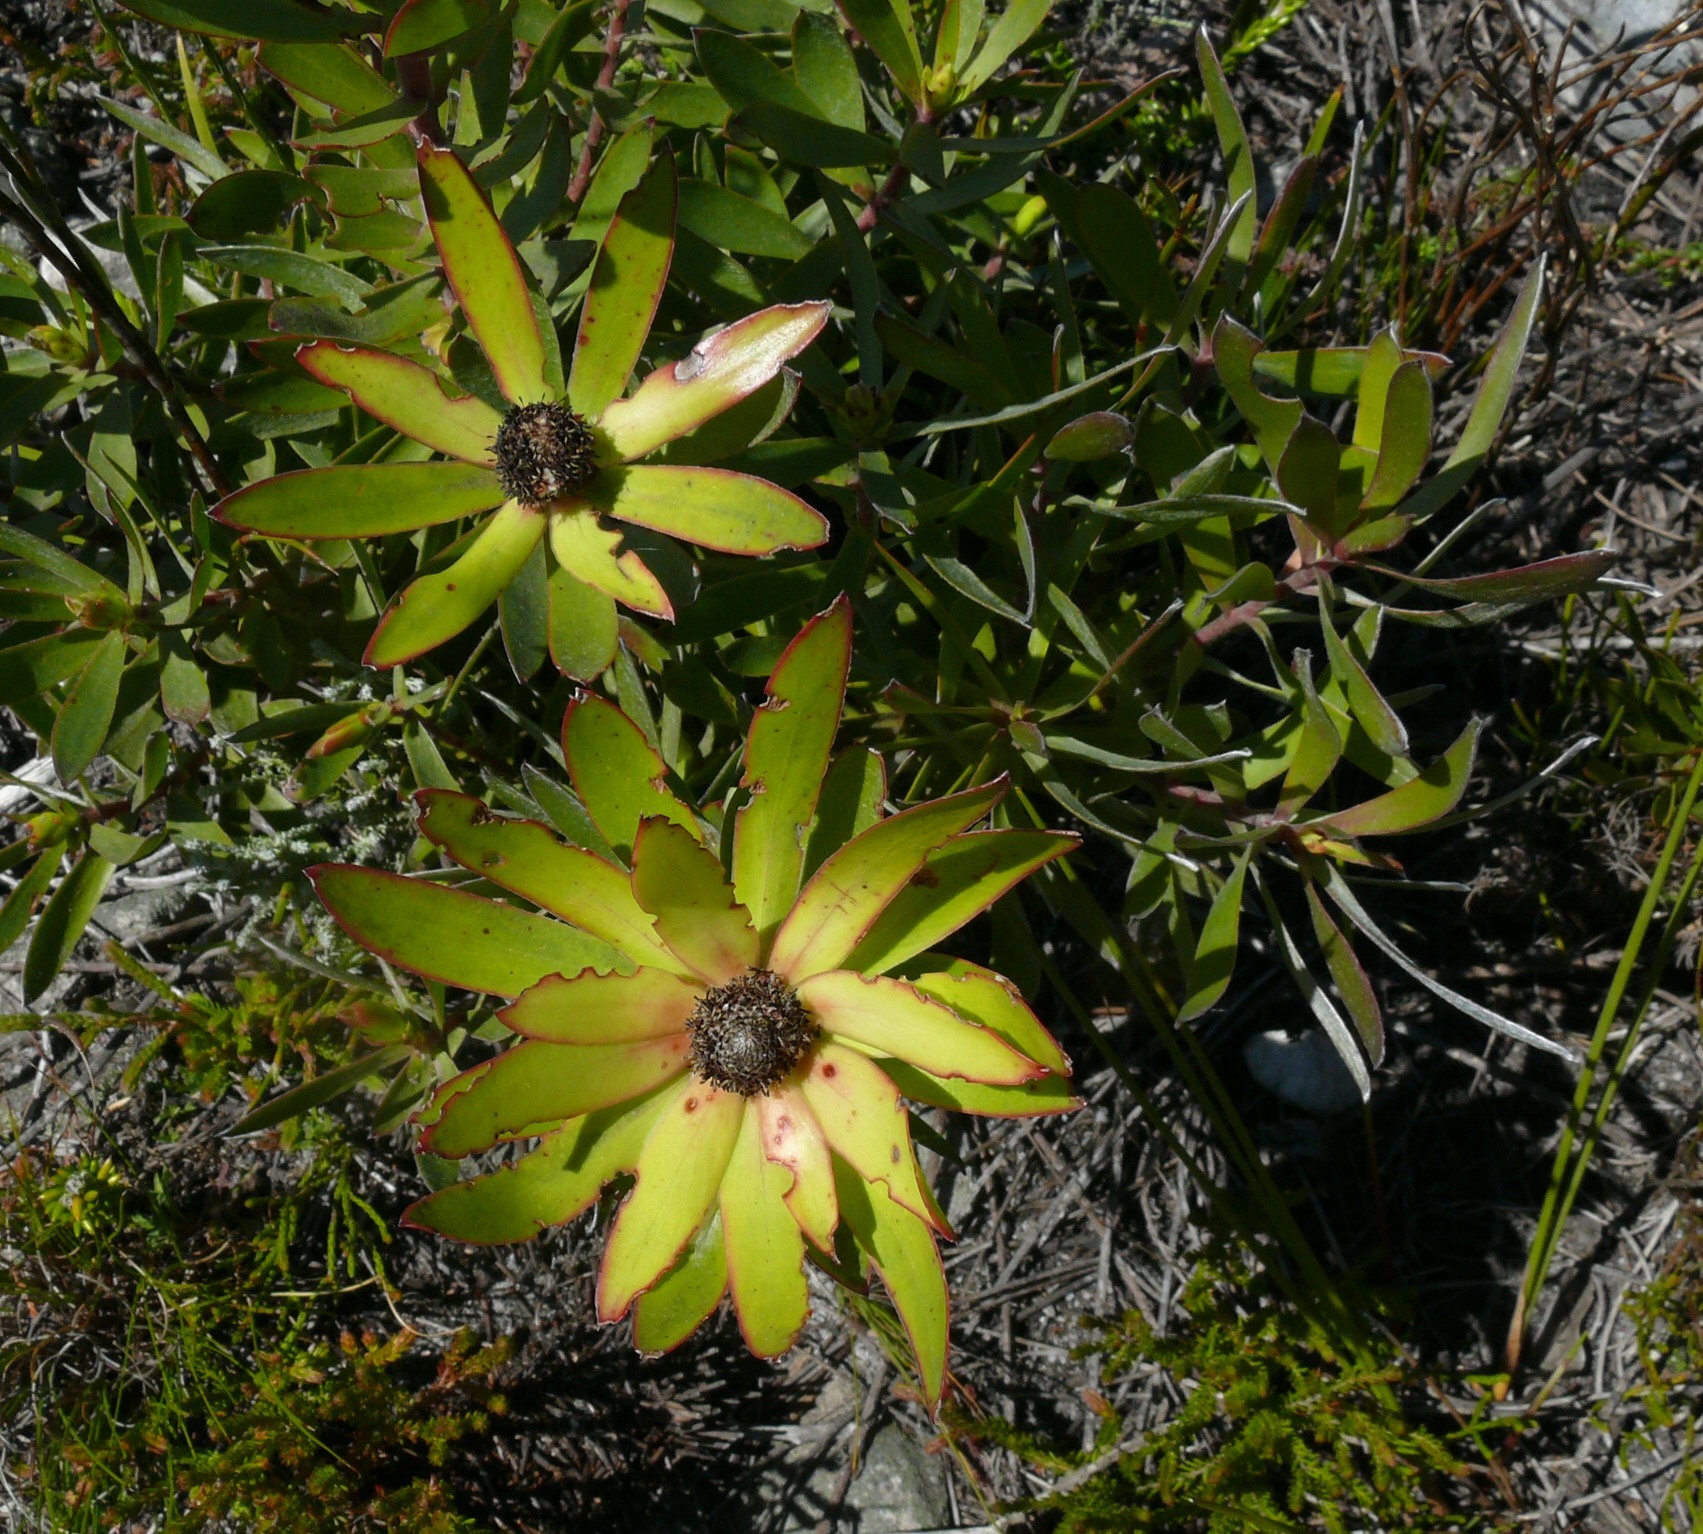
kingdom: Plantae
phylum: Tracheophyta
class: Magnoliopsida
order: Proteales
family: Proteaceae
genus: Leucadendron
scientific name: Leucadendron gandogeri
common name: Broad-leaf conebush
